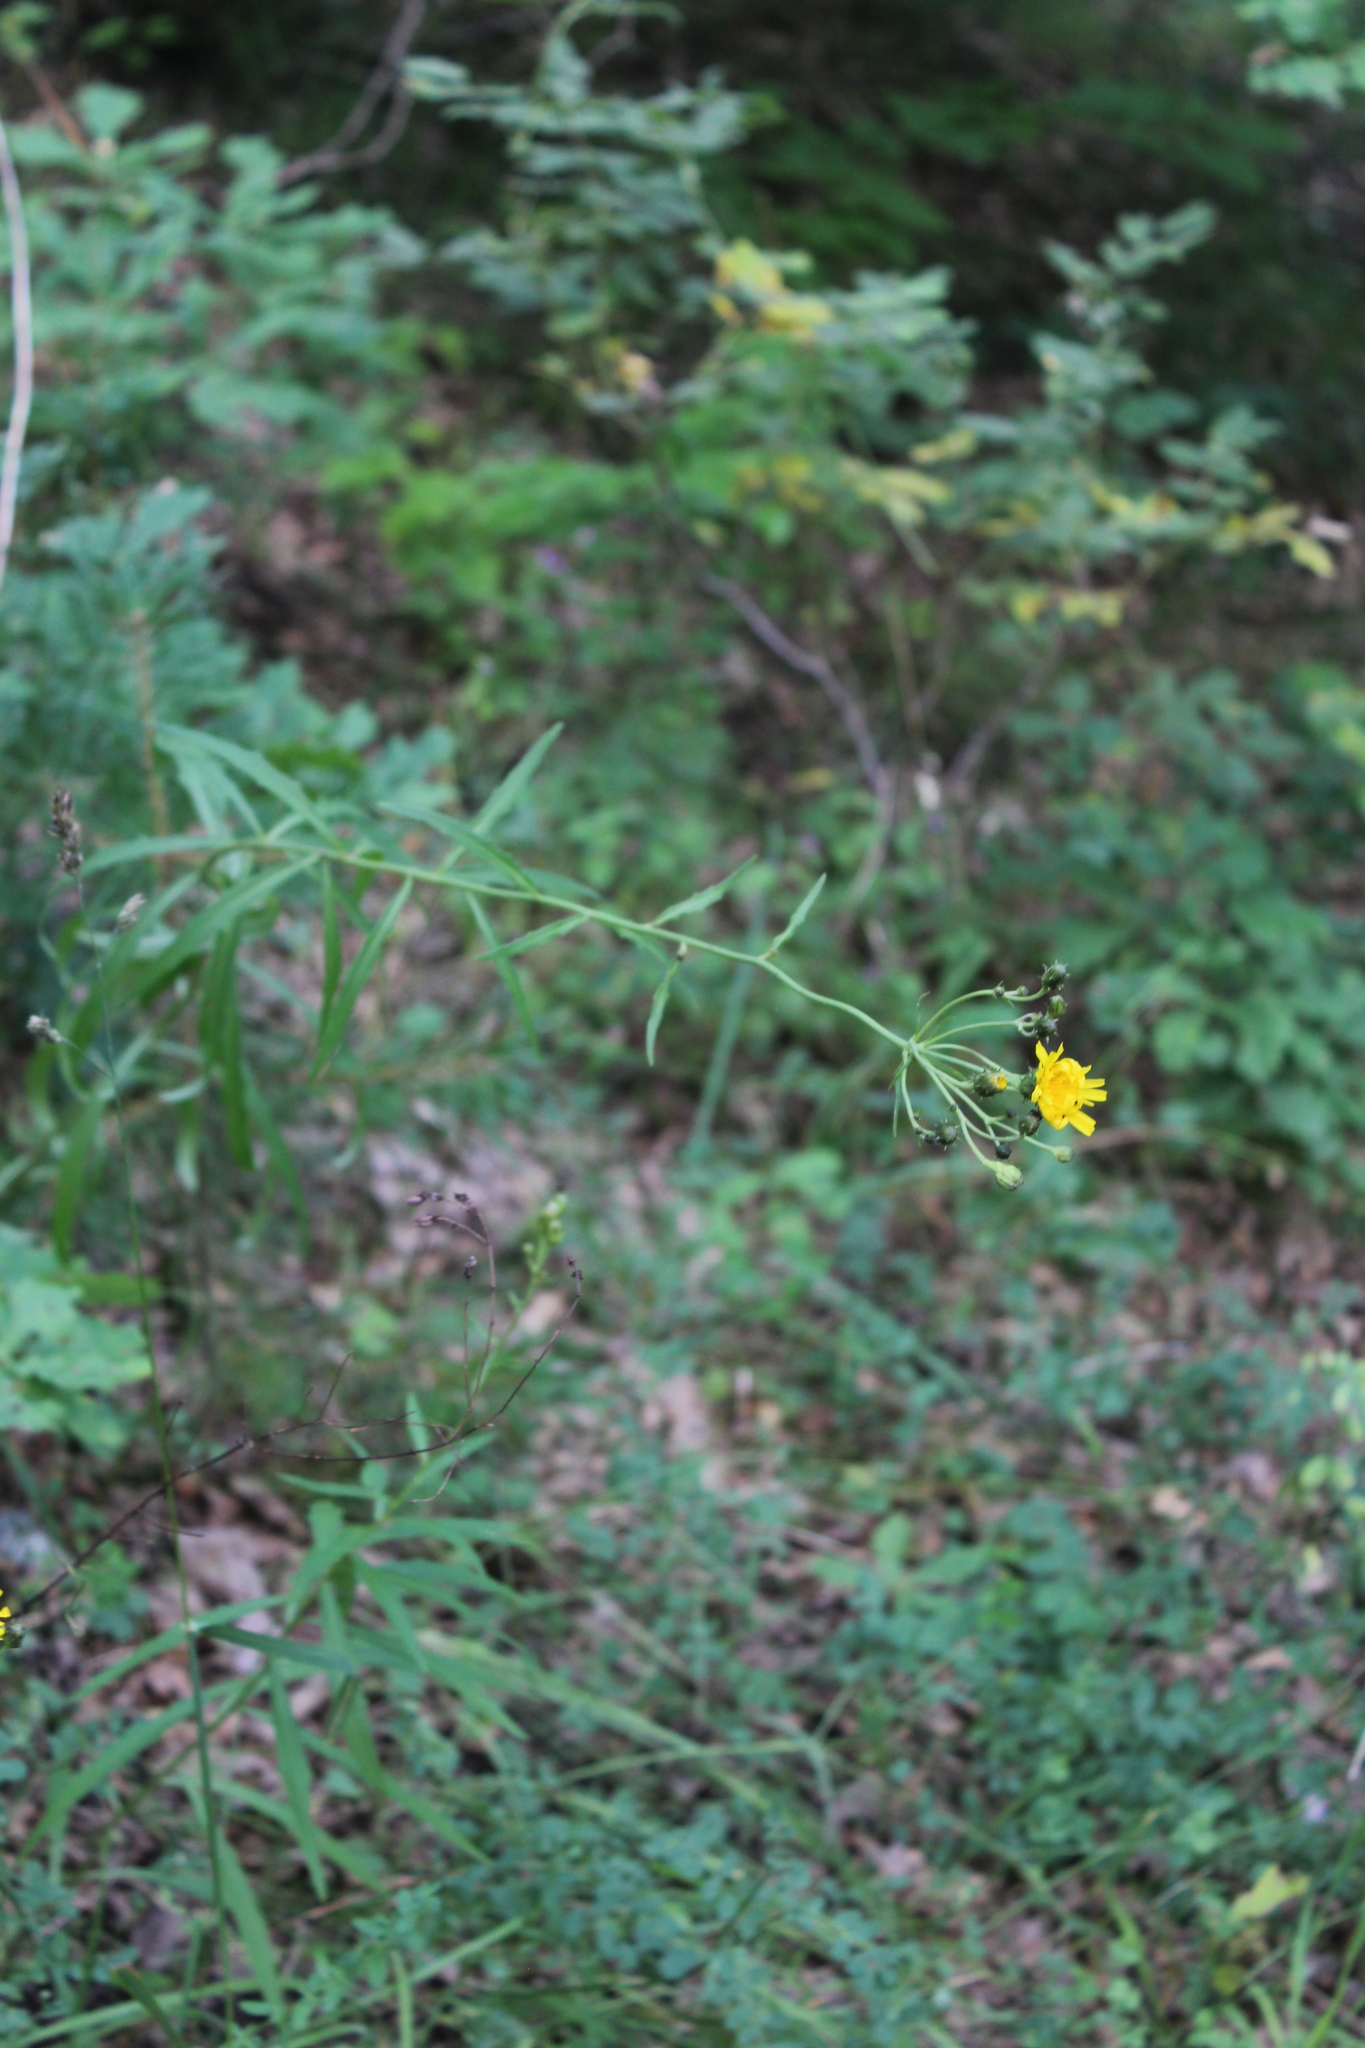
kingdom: Plantae
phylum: Tracheophyta
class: Magnoliopsida
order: Asterales
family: Asteraceae
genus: Hieracium
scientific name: Hieracium umbellatum
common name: Northern hawkweed
